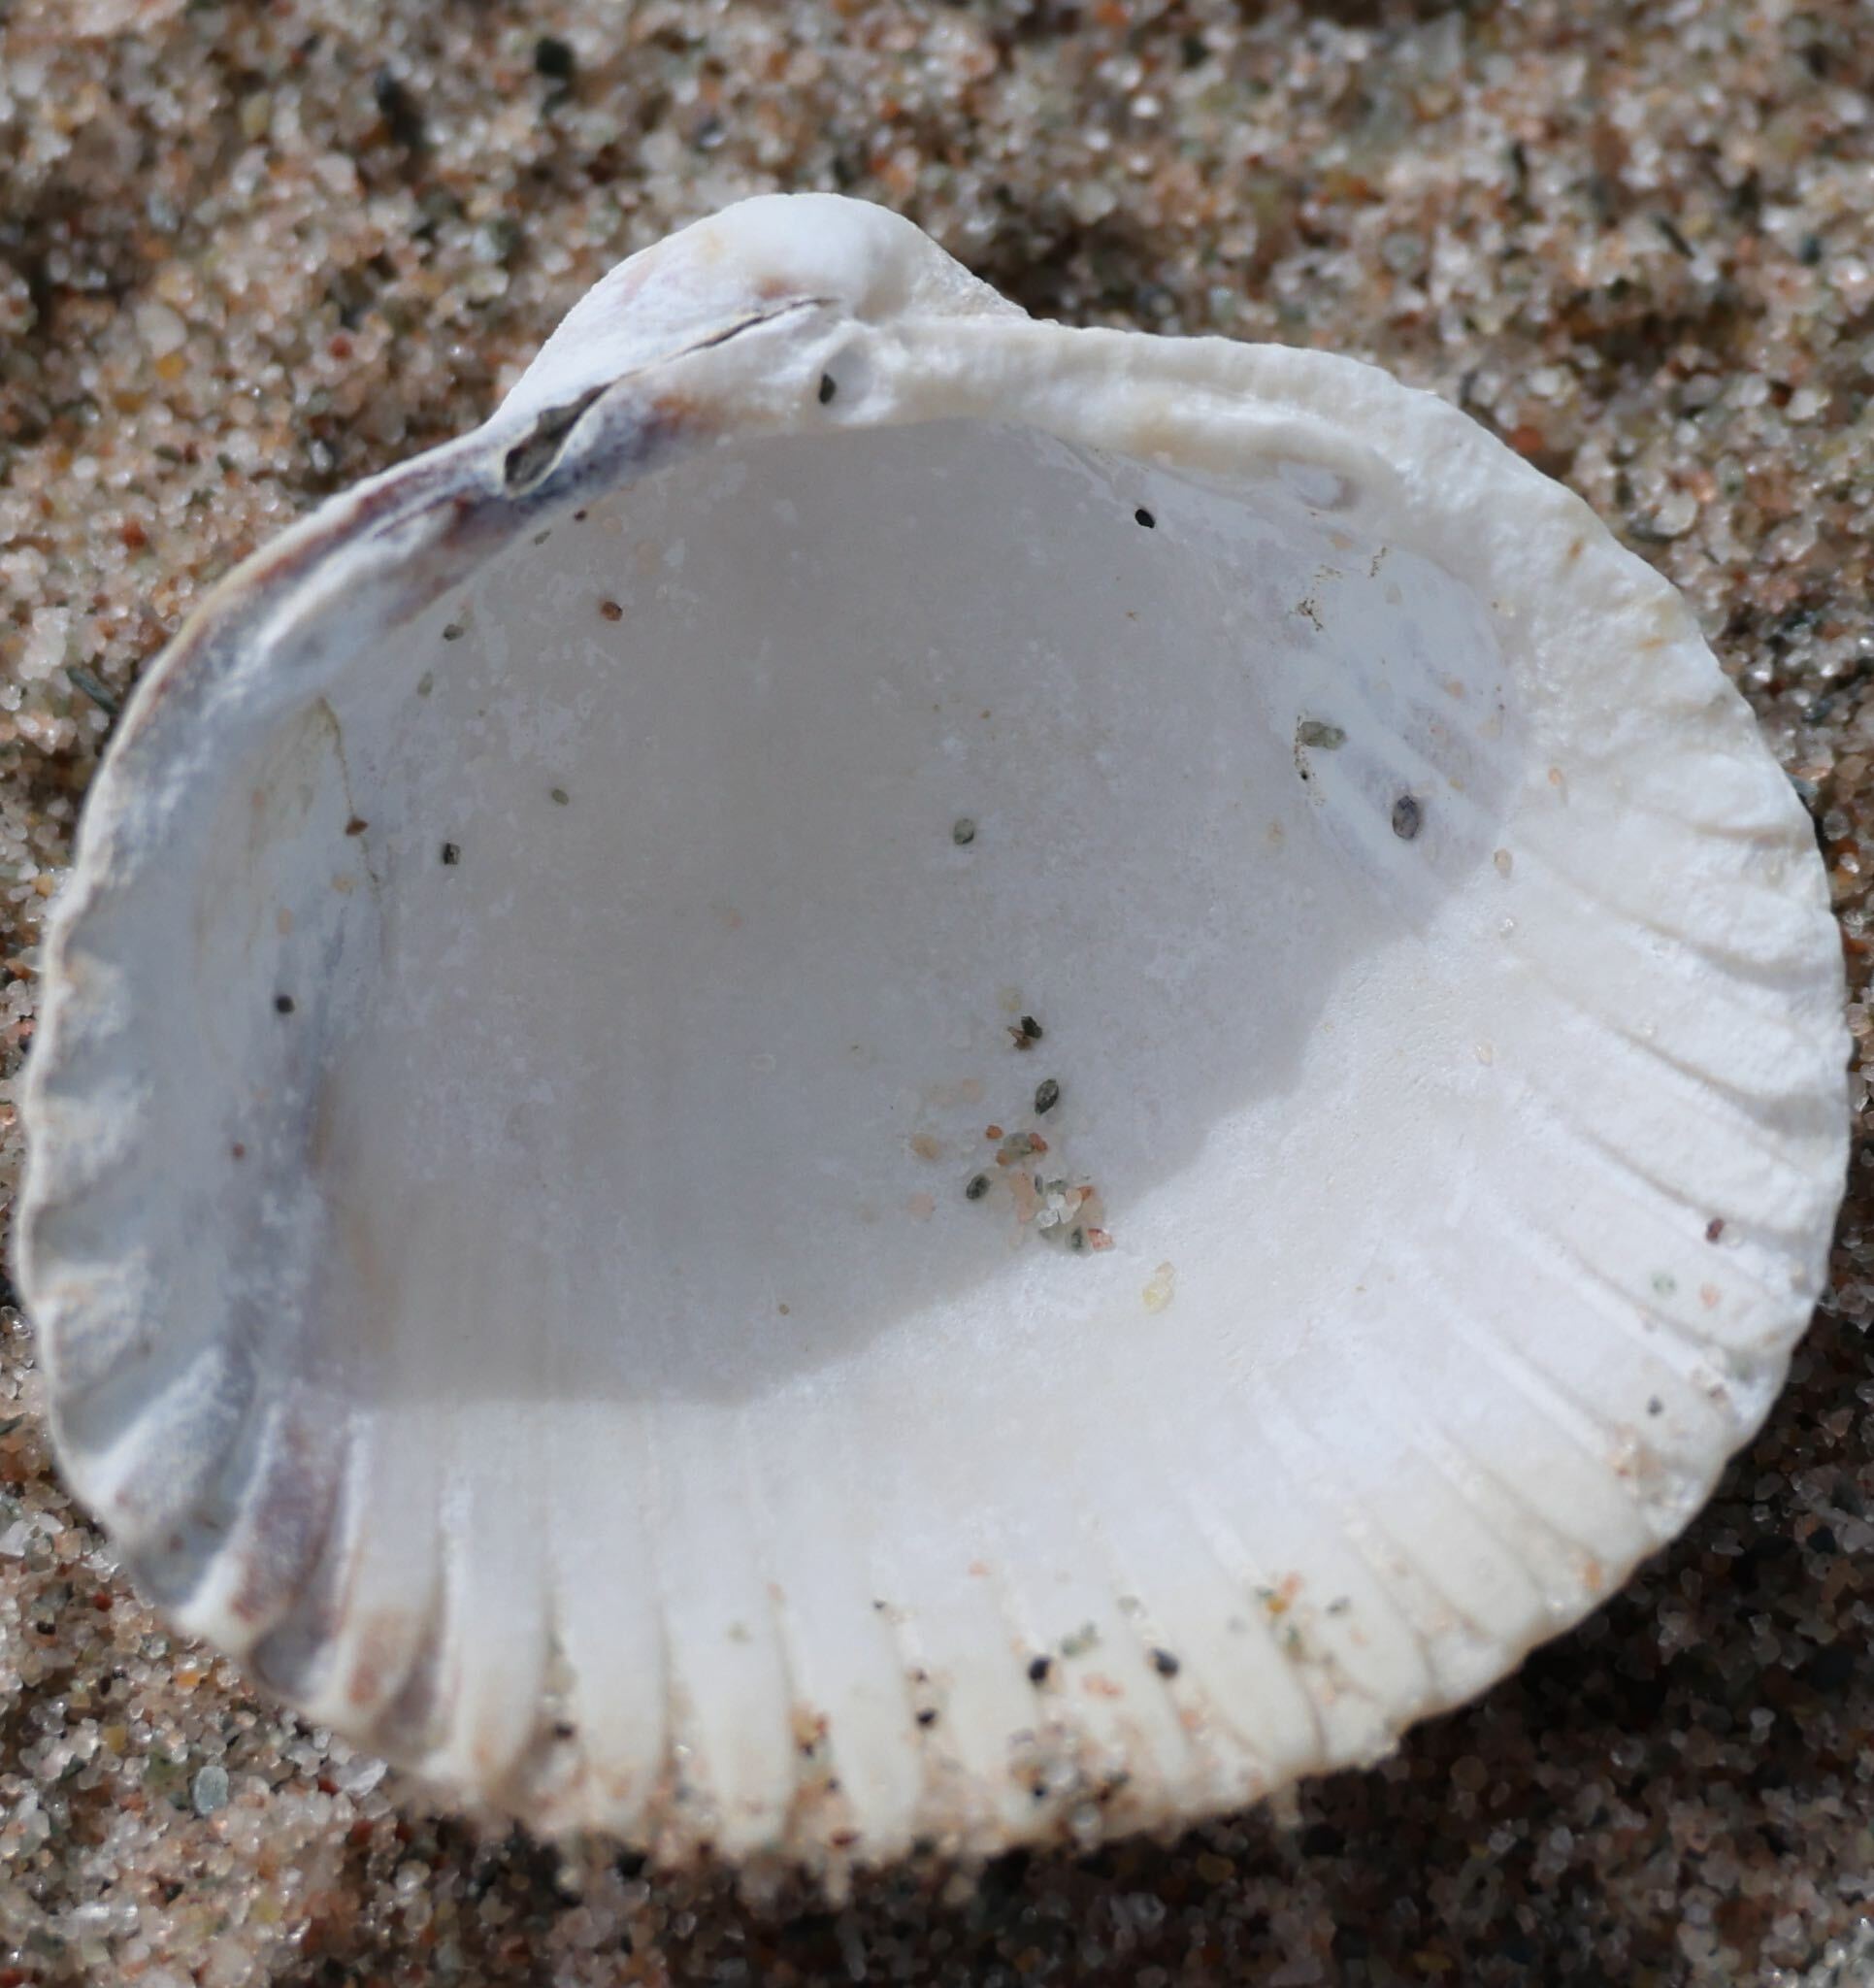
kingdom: Animalia
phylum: Mollusca
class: Bivalvia
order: Cardiida
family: Cardiidae
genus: Cerastoderma
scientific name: Cerastoderma edule
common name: Common cockle
